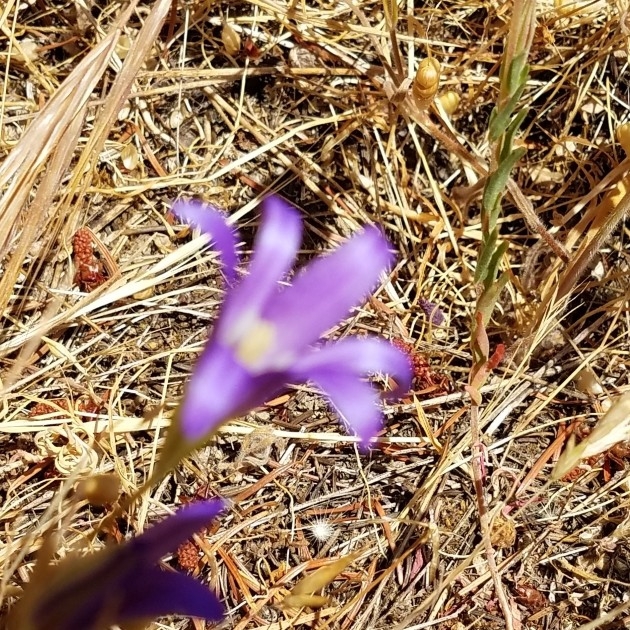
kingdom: Plantae
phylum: Tracheophyta
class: Liliopsida
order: Asparagales
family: Asparagaceae
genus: Brodiaea
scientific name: Brodiaea elegans
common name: Elegant cluster-lily
